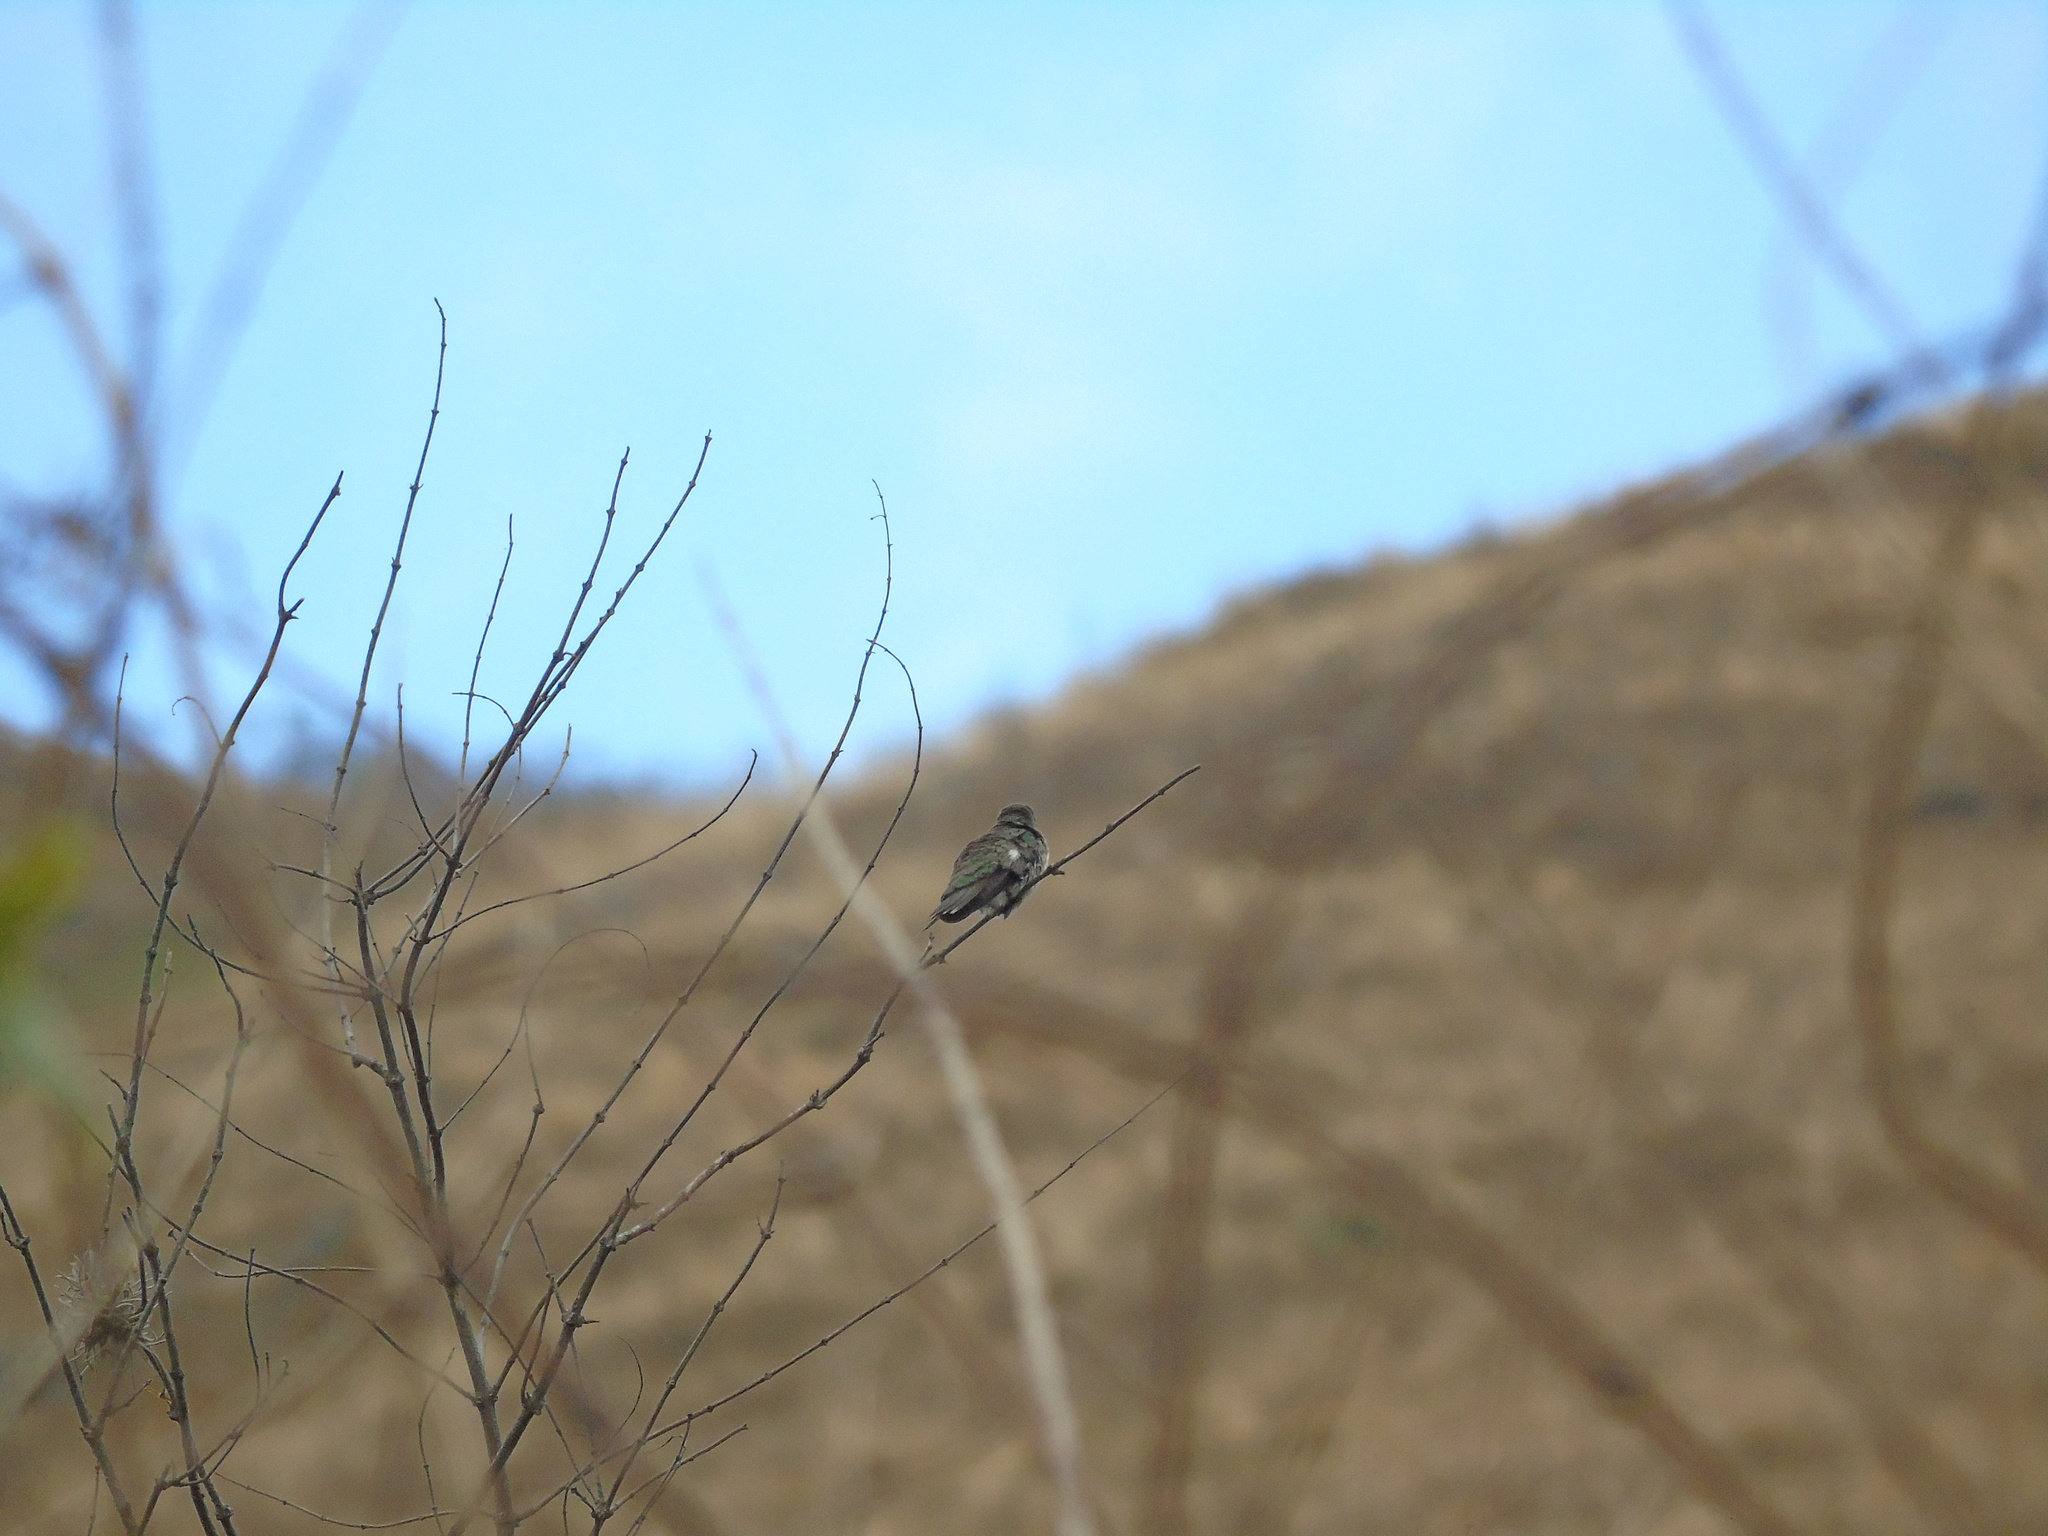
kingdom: Animalia
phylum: Chordata
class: Aves
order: Apodiformes
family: Trochilidae
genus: Heliomaster
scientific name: Heliomaster furcifer
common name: Blue-tufted starthroat
